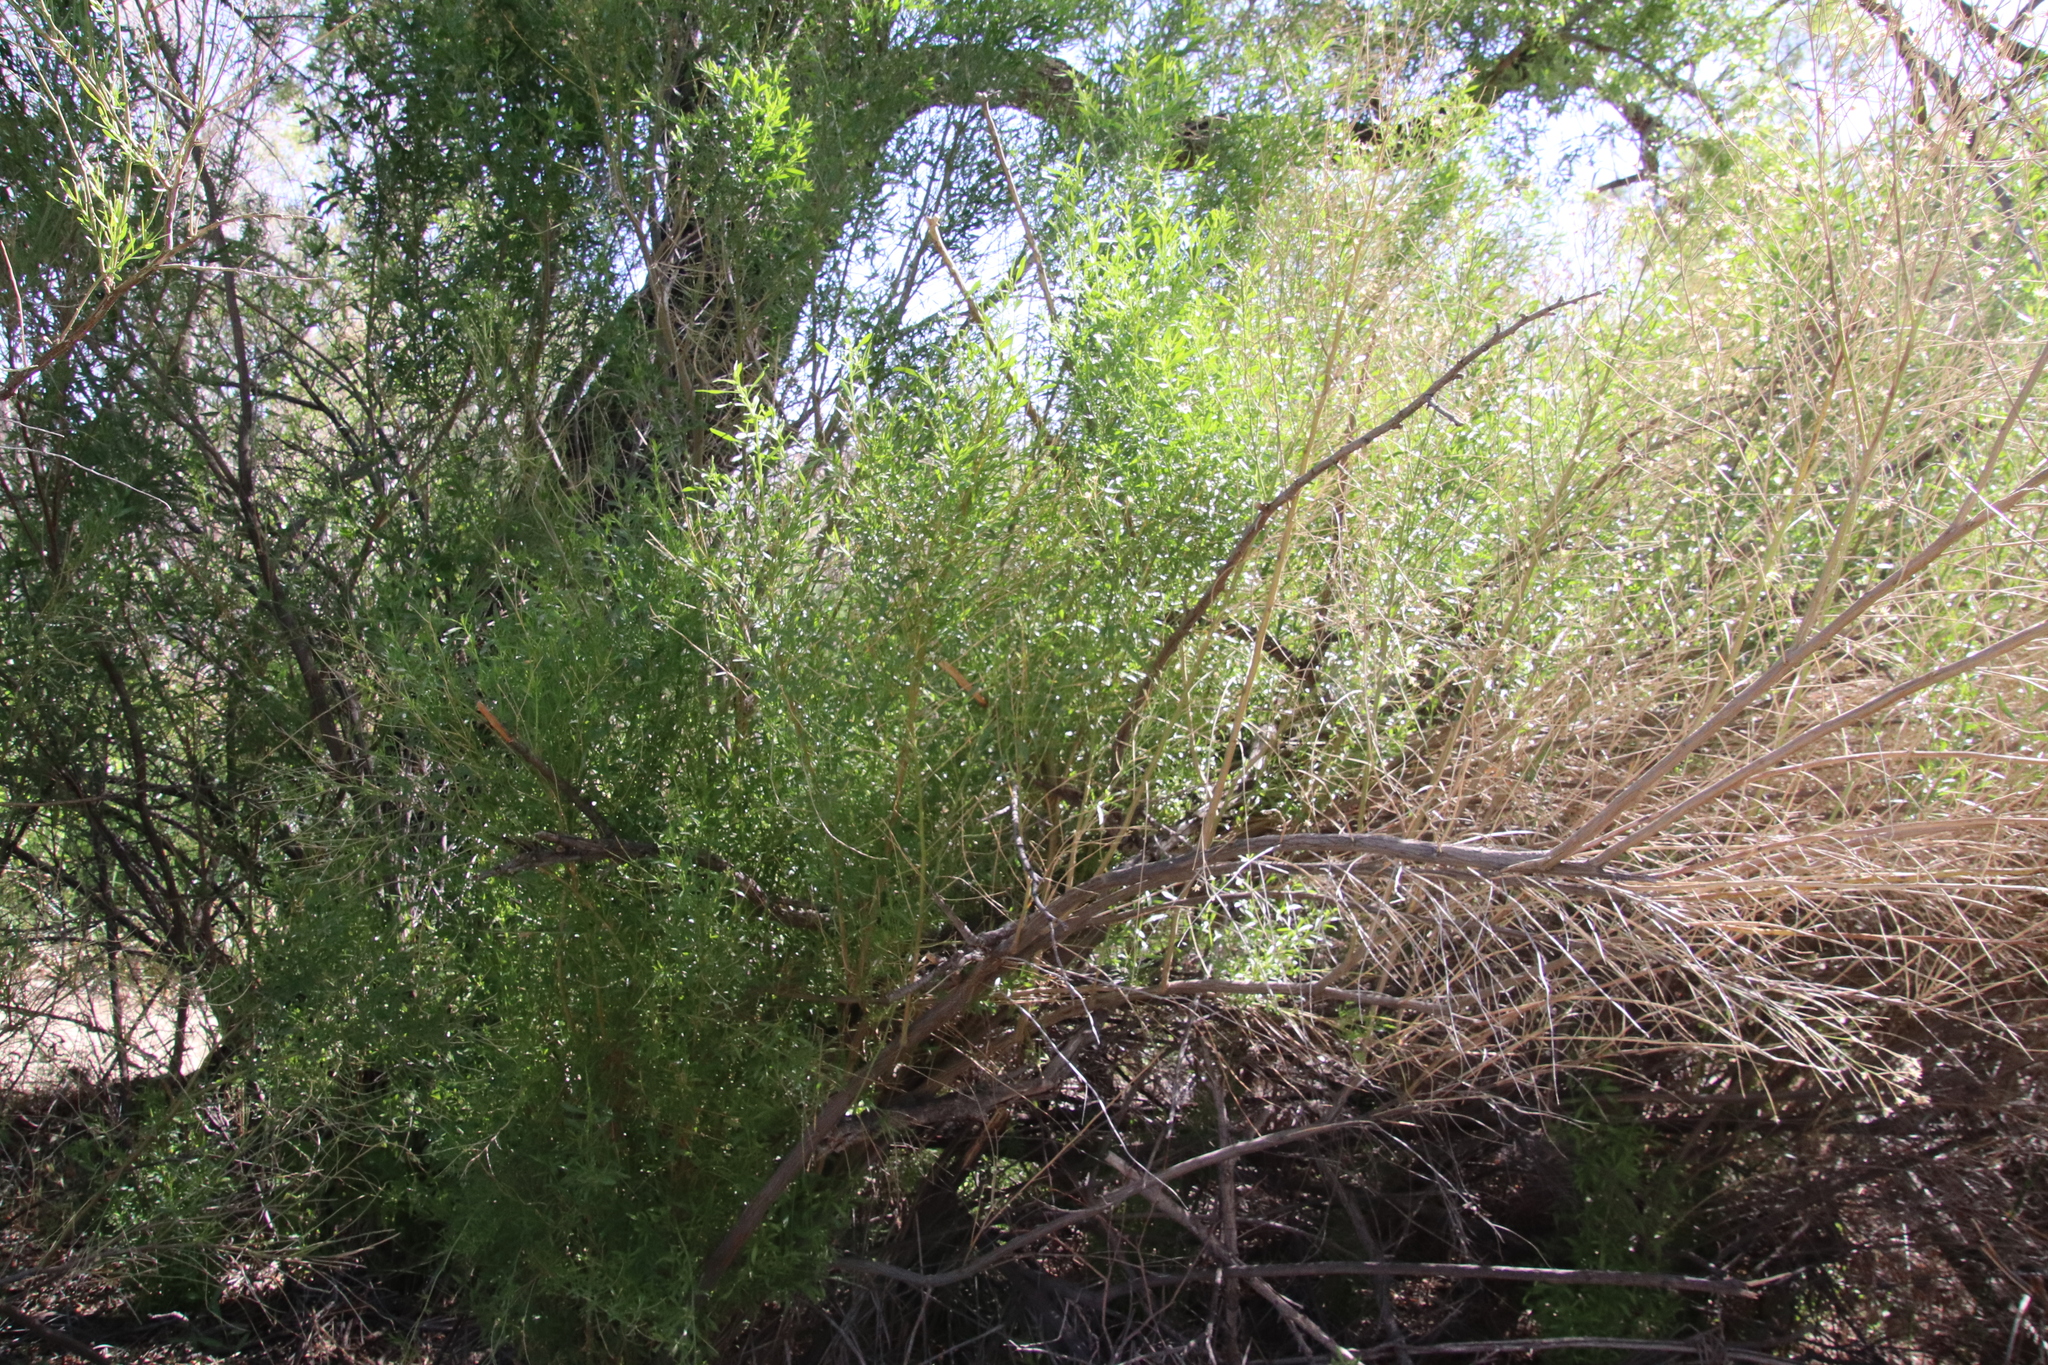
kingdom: Plantae
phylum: Tracheophyta
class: Magnoliopsida
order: Asterales
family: Asteraceae
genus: Baccharis
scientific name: Baccharis sergiloides
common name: Desert baccharis
